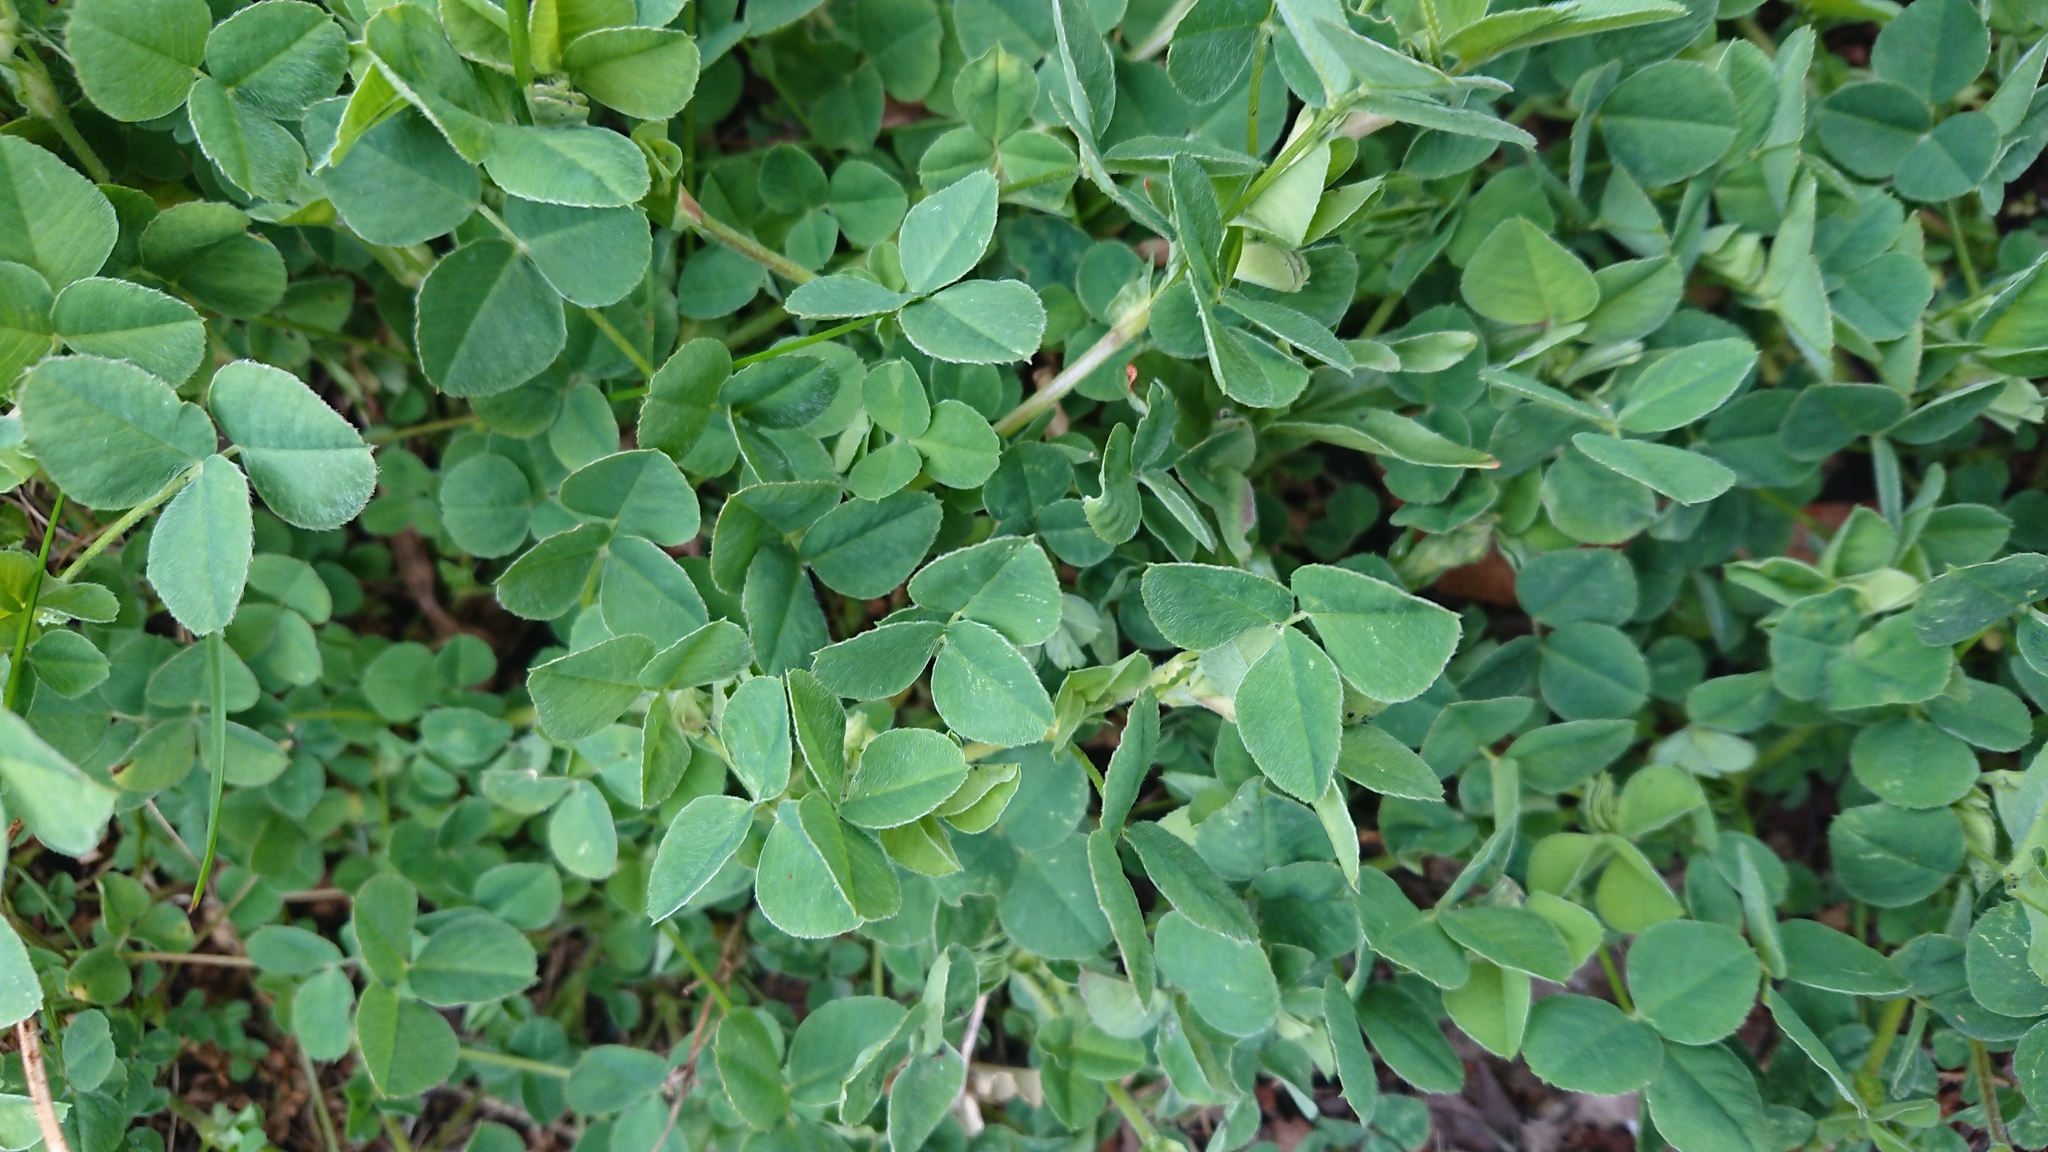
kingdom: Plantae
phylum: Tracheophyta
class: Magnoliopsida
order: Fabales
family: Fabaceae
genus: Medicago
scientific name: Medicago lupulina
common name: Black medick
